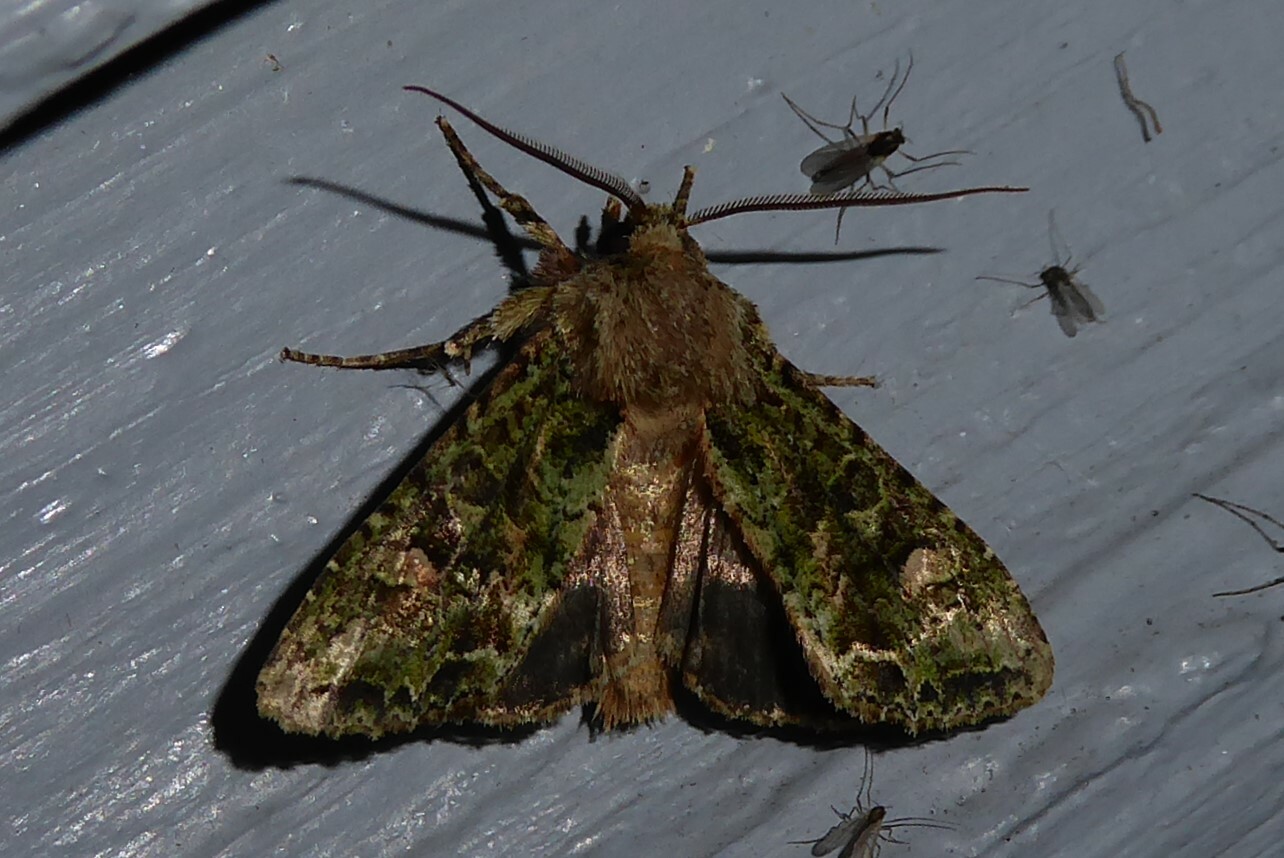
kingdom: Animalia
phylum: Arthropoda
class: Insecta
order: Lepidoptera
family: Noctuidae
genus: Ichneutica
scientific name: Ichneutica
